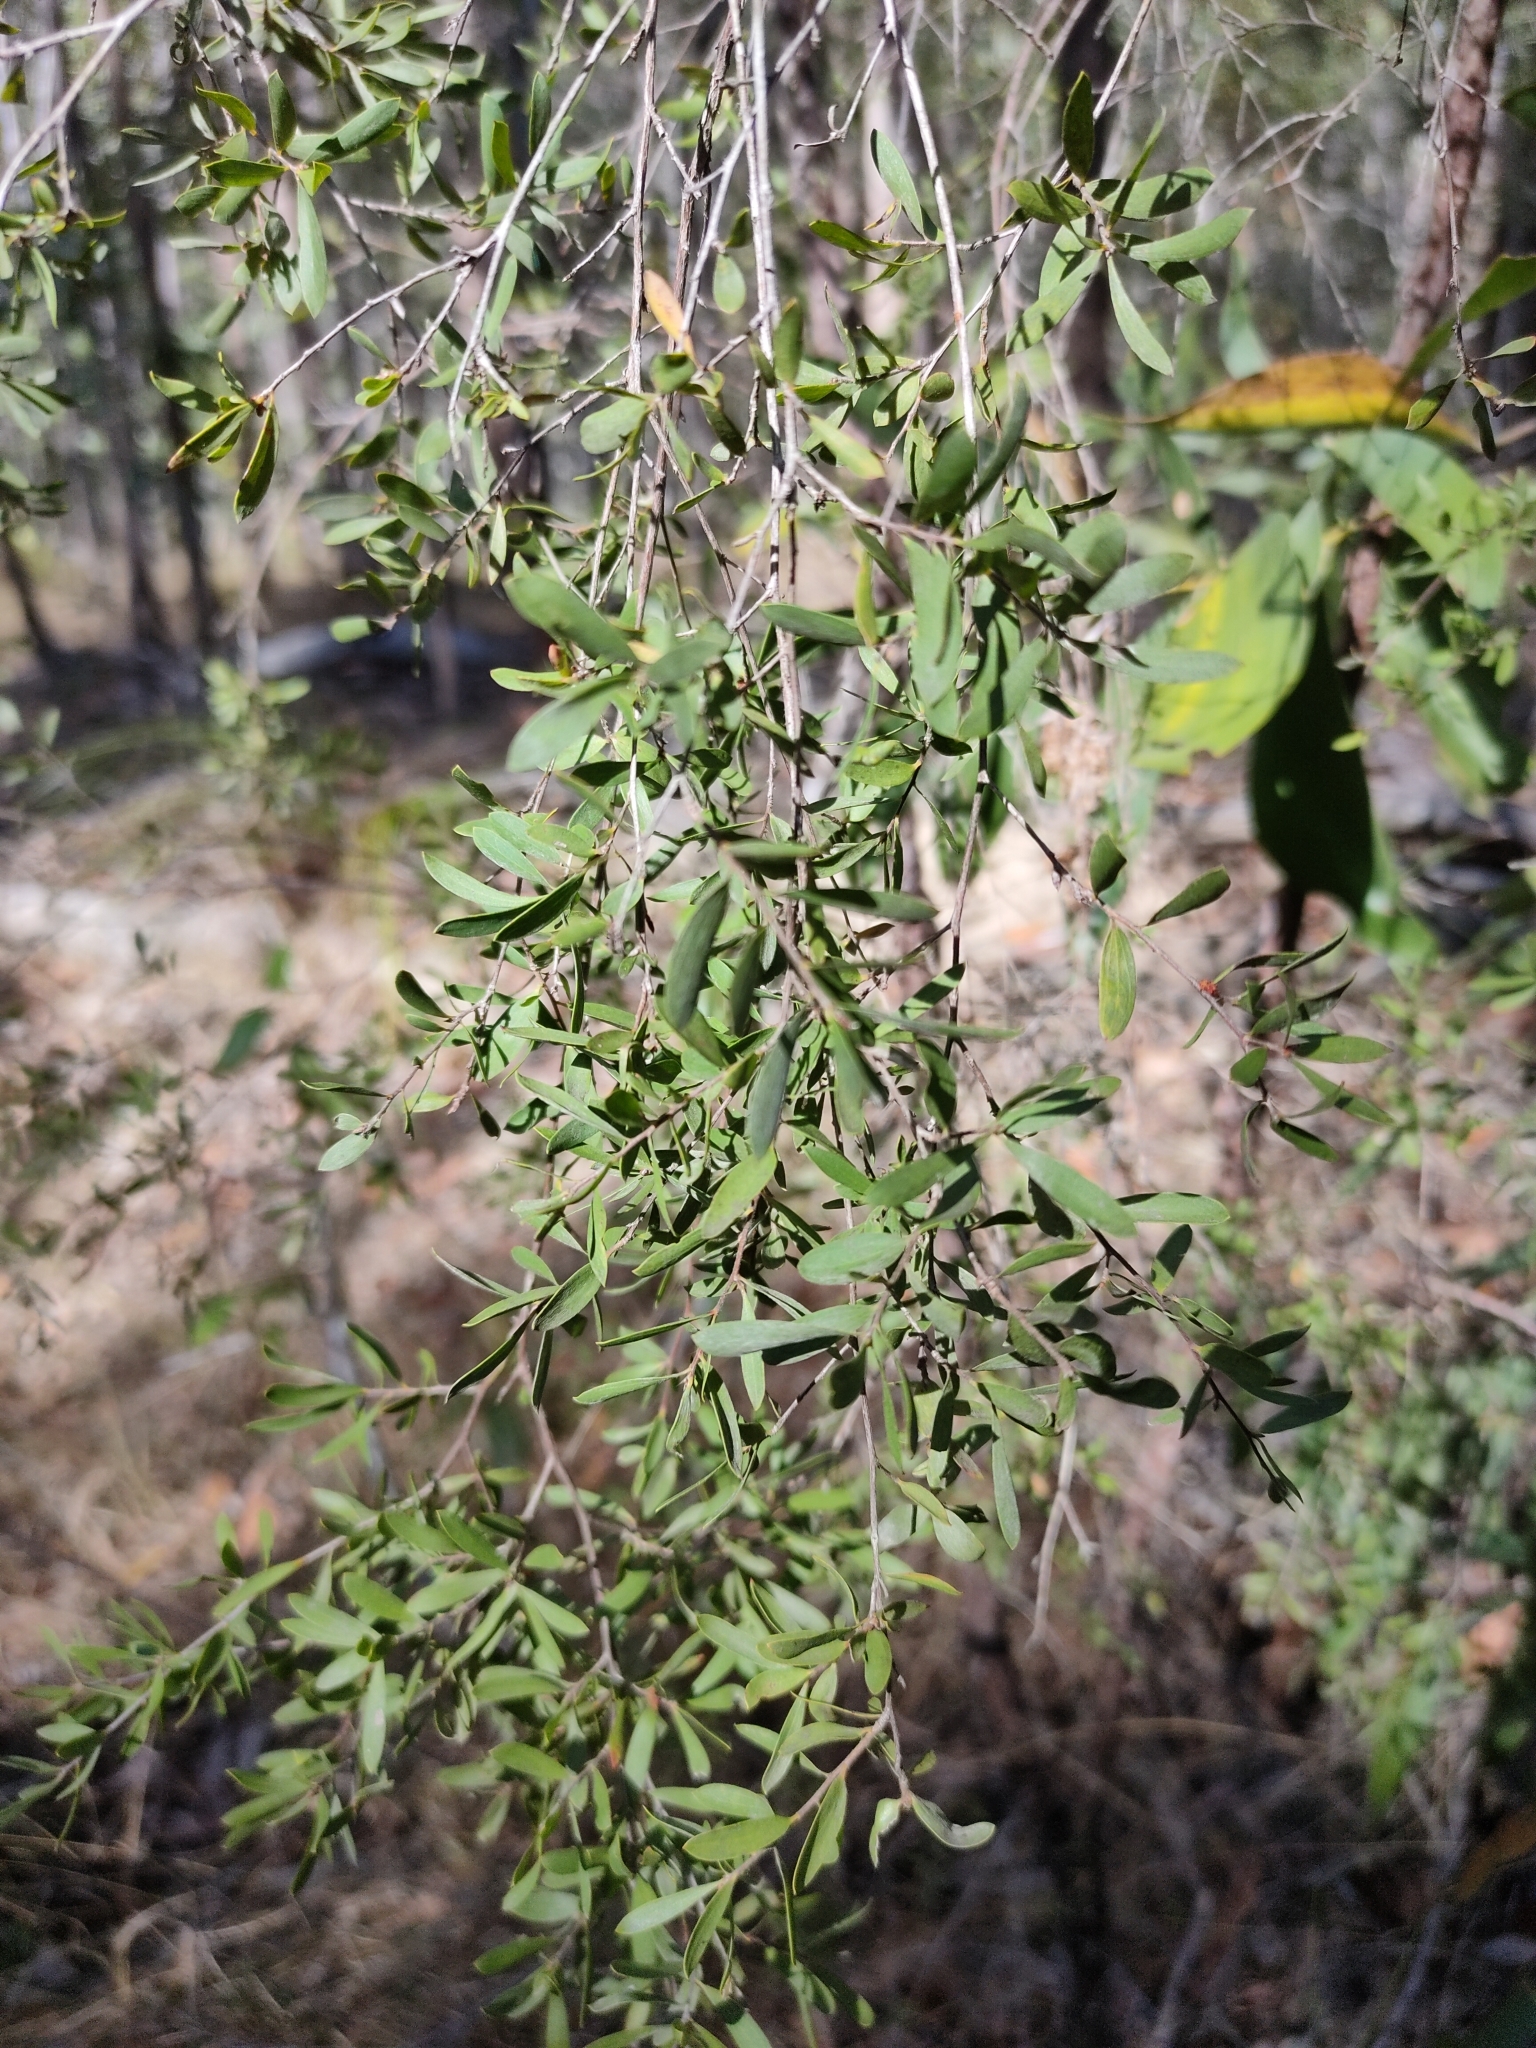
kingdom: Plantae
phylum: Tracheophyta
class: Magnoliopsida
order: Myrtales
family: Myrtaceae
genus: Leptospermum
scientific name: Leptospermum trinervium
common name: Flaky-barked tea-tree
